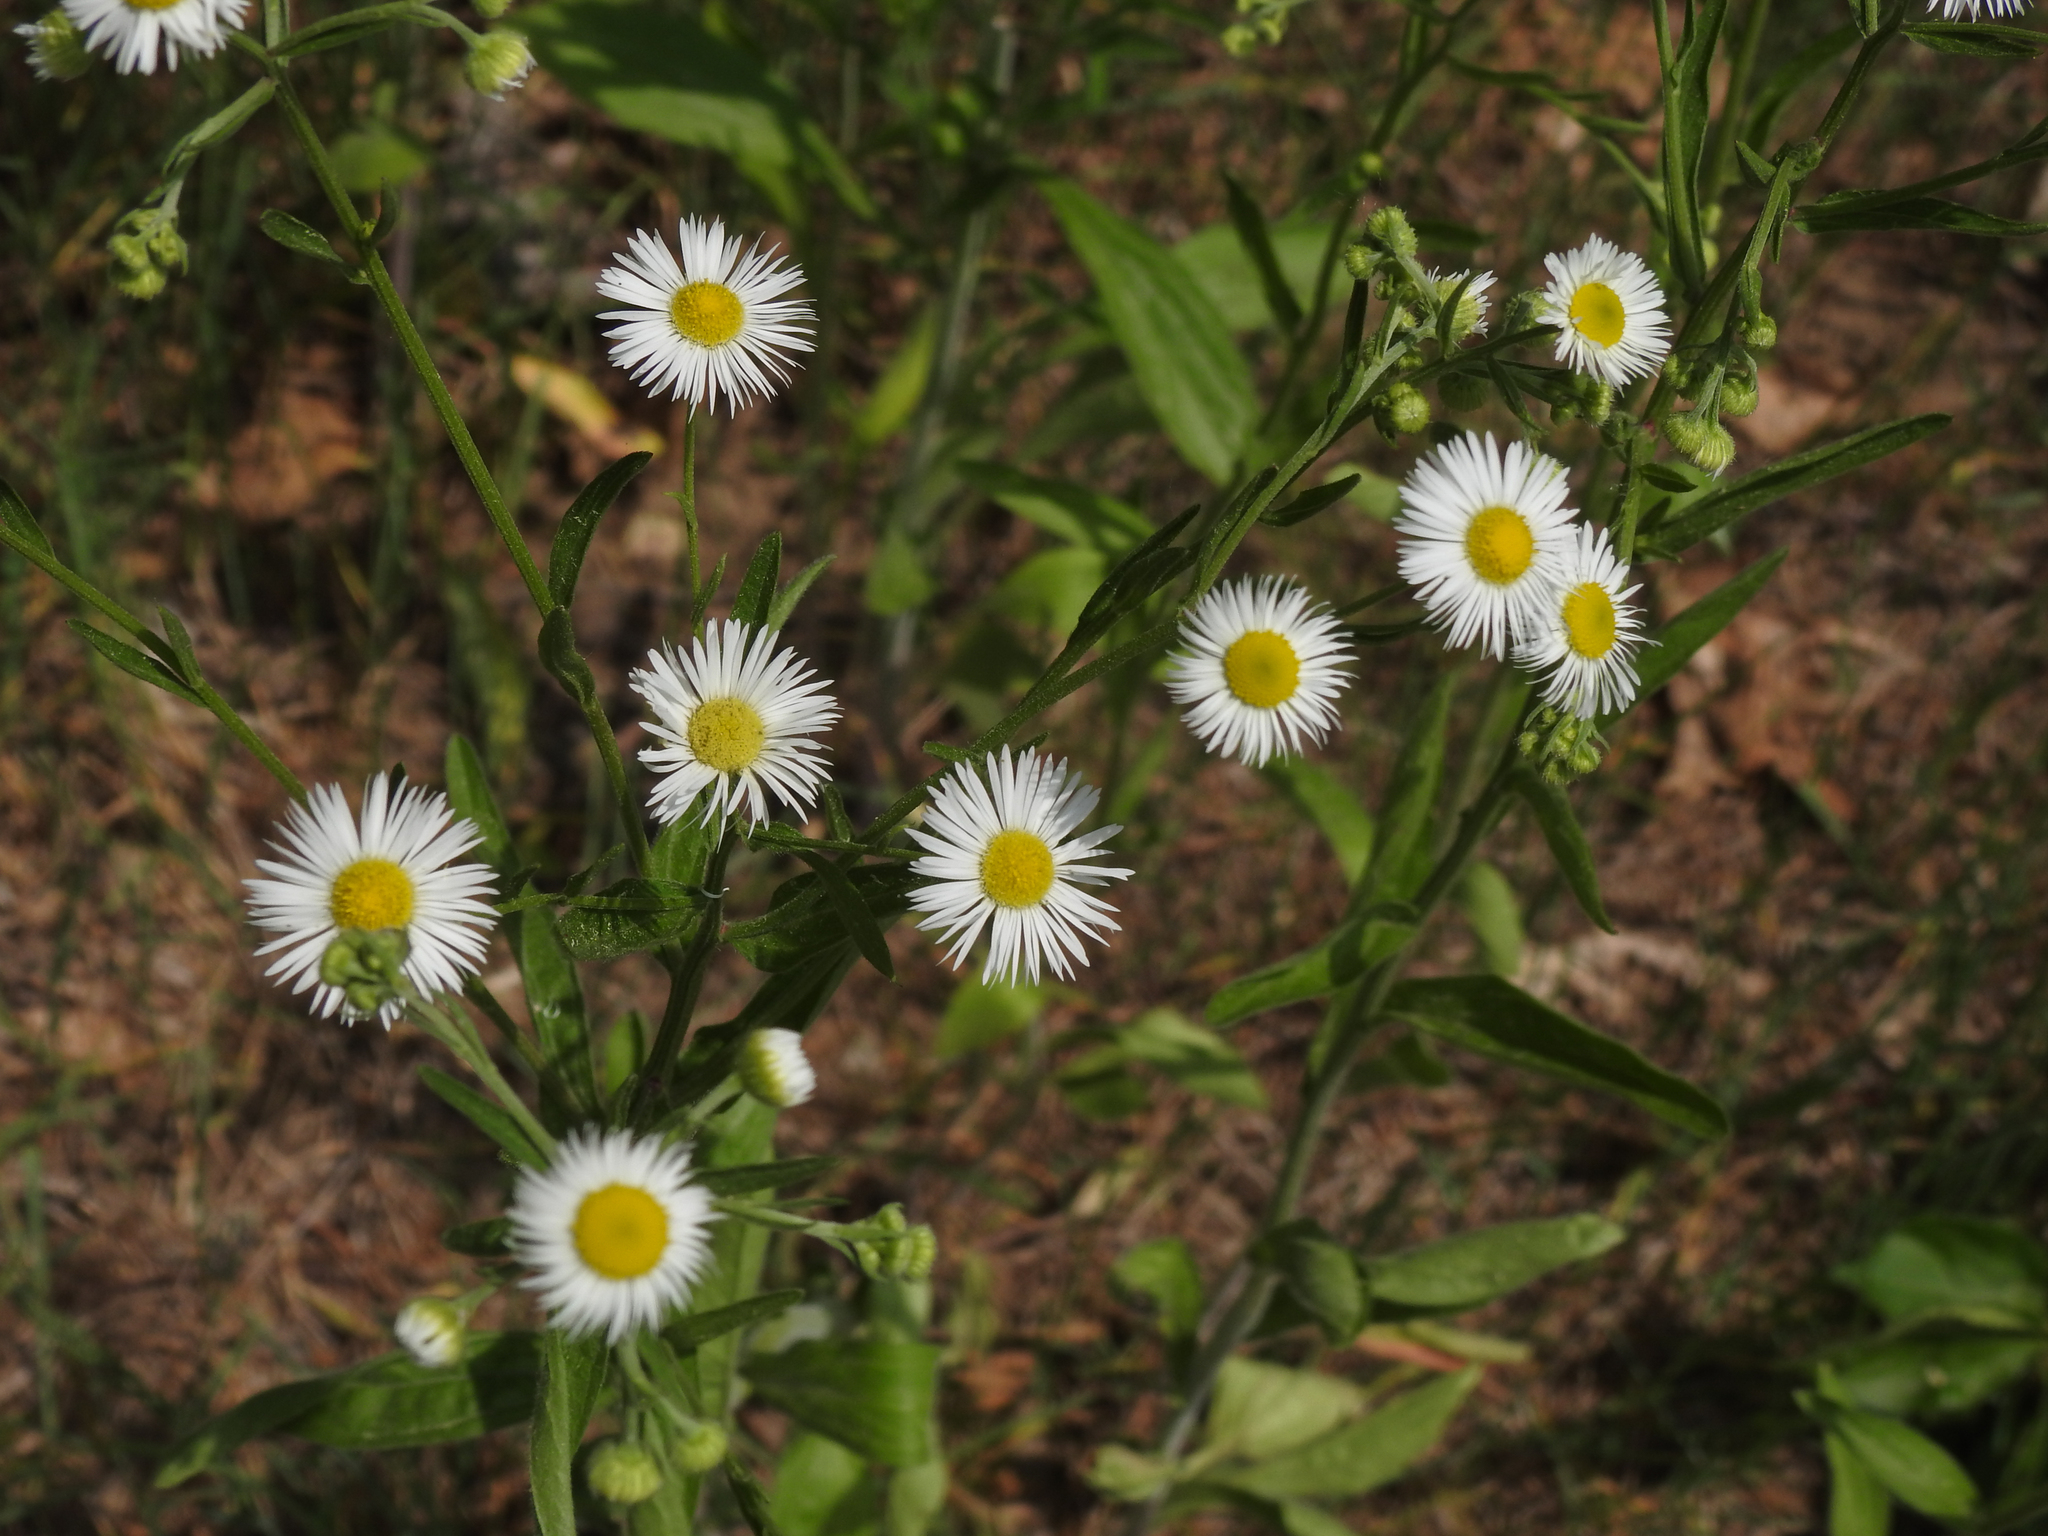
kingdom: Plantae
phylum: Tracheophyta
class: Magnoliopsida
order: Asterales
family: Asteraceae
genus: Erigeron
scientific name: Erigeron annuus
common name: Tall fleabane
